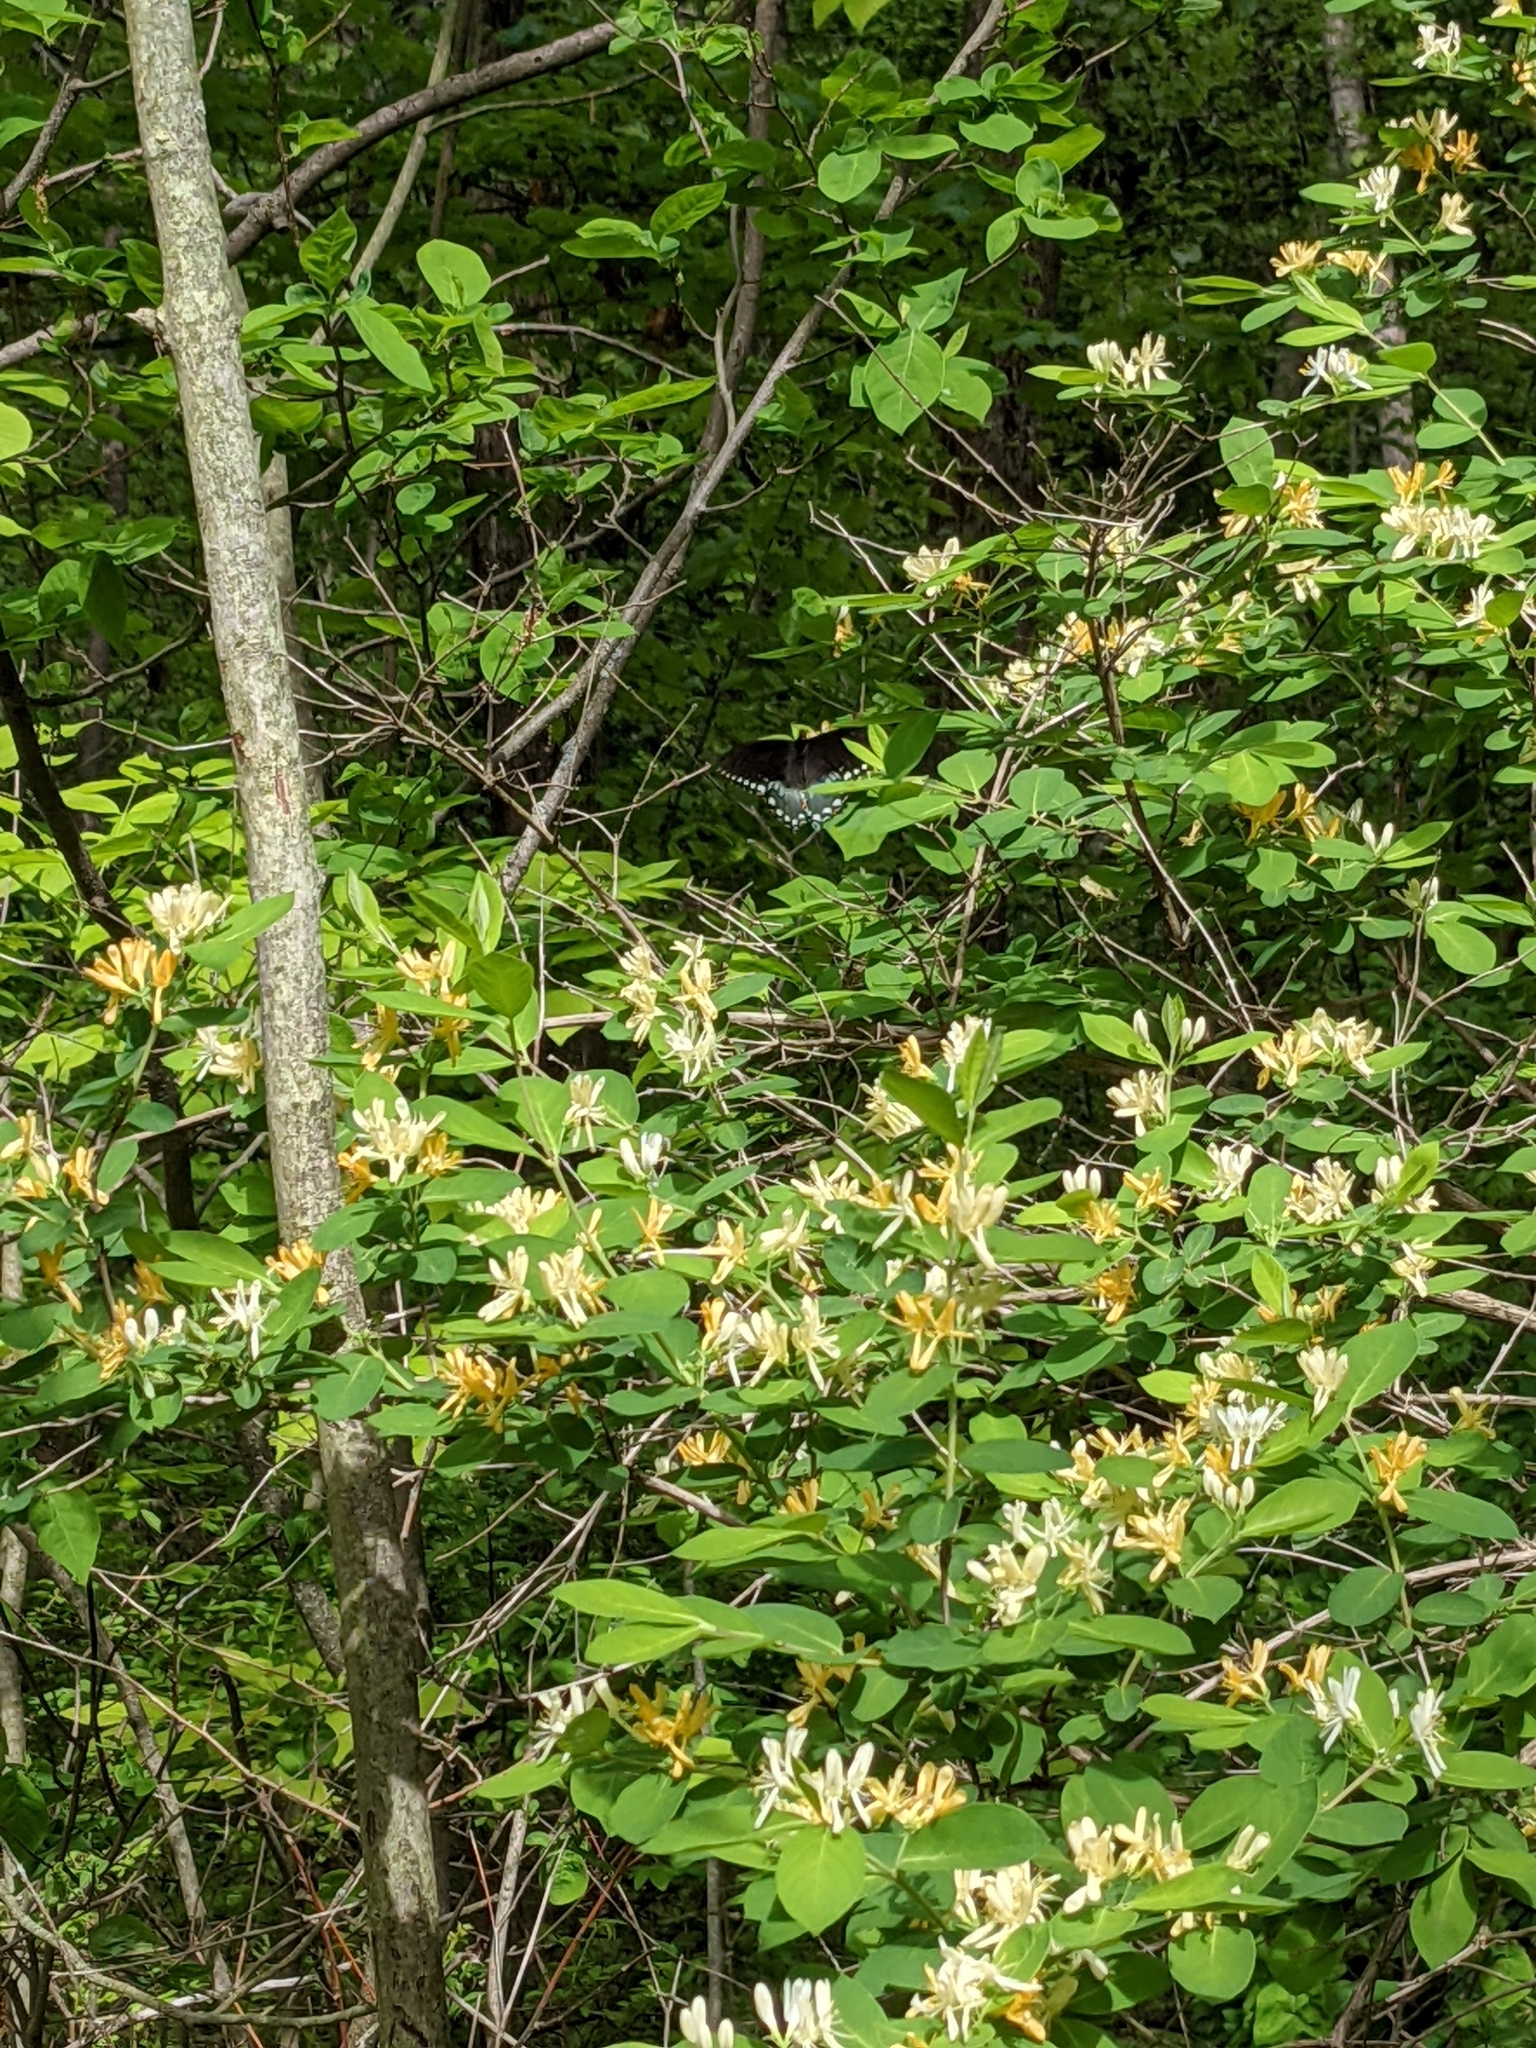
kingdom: Animalia
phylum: Arthropoda
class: Insecta
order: Lepidoptera
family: Papilionidae
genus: Papilio
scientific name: Papilio troilus
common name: Spicebush swallowtail
